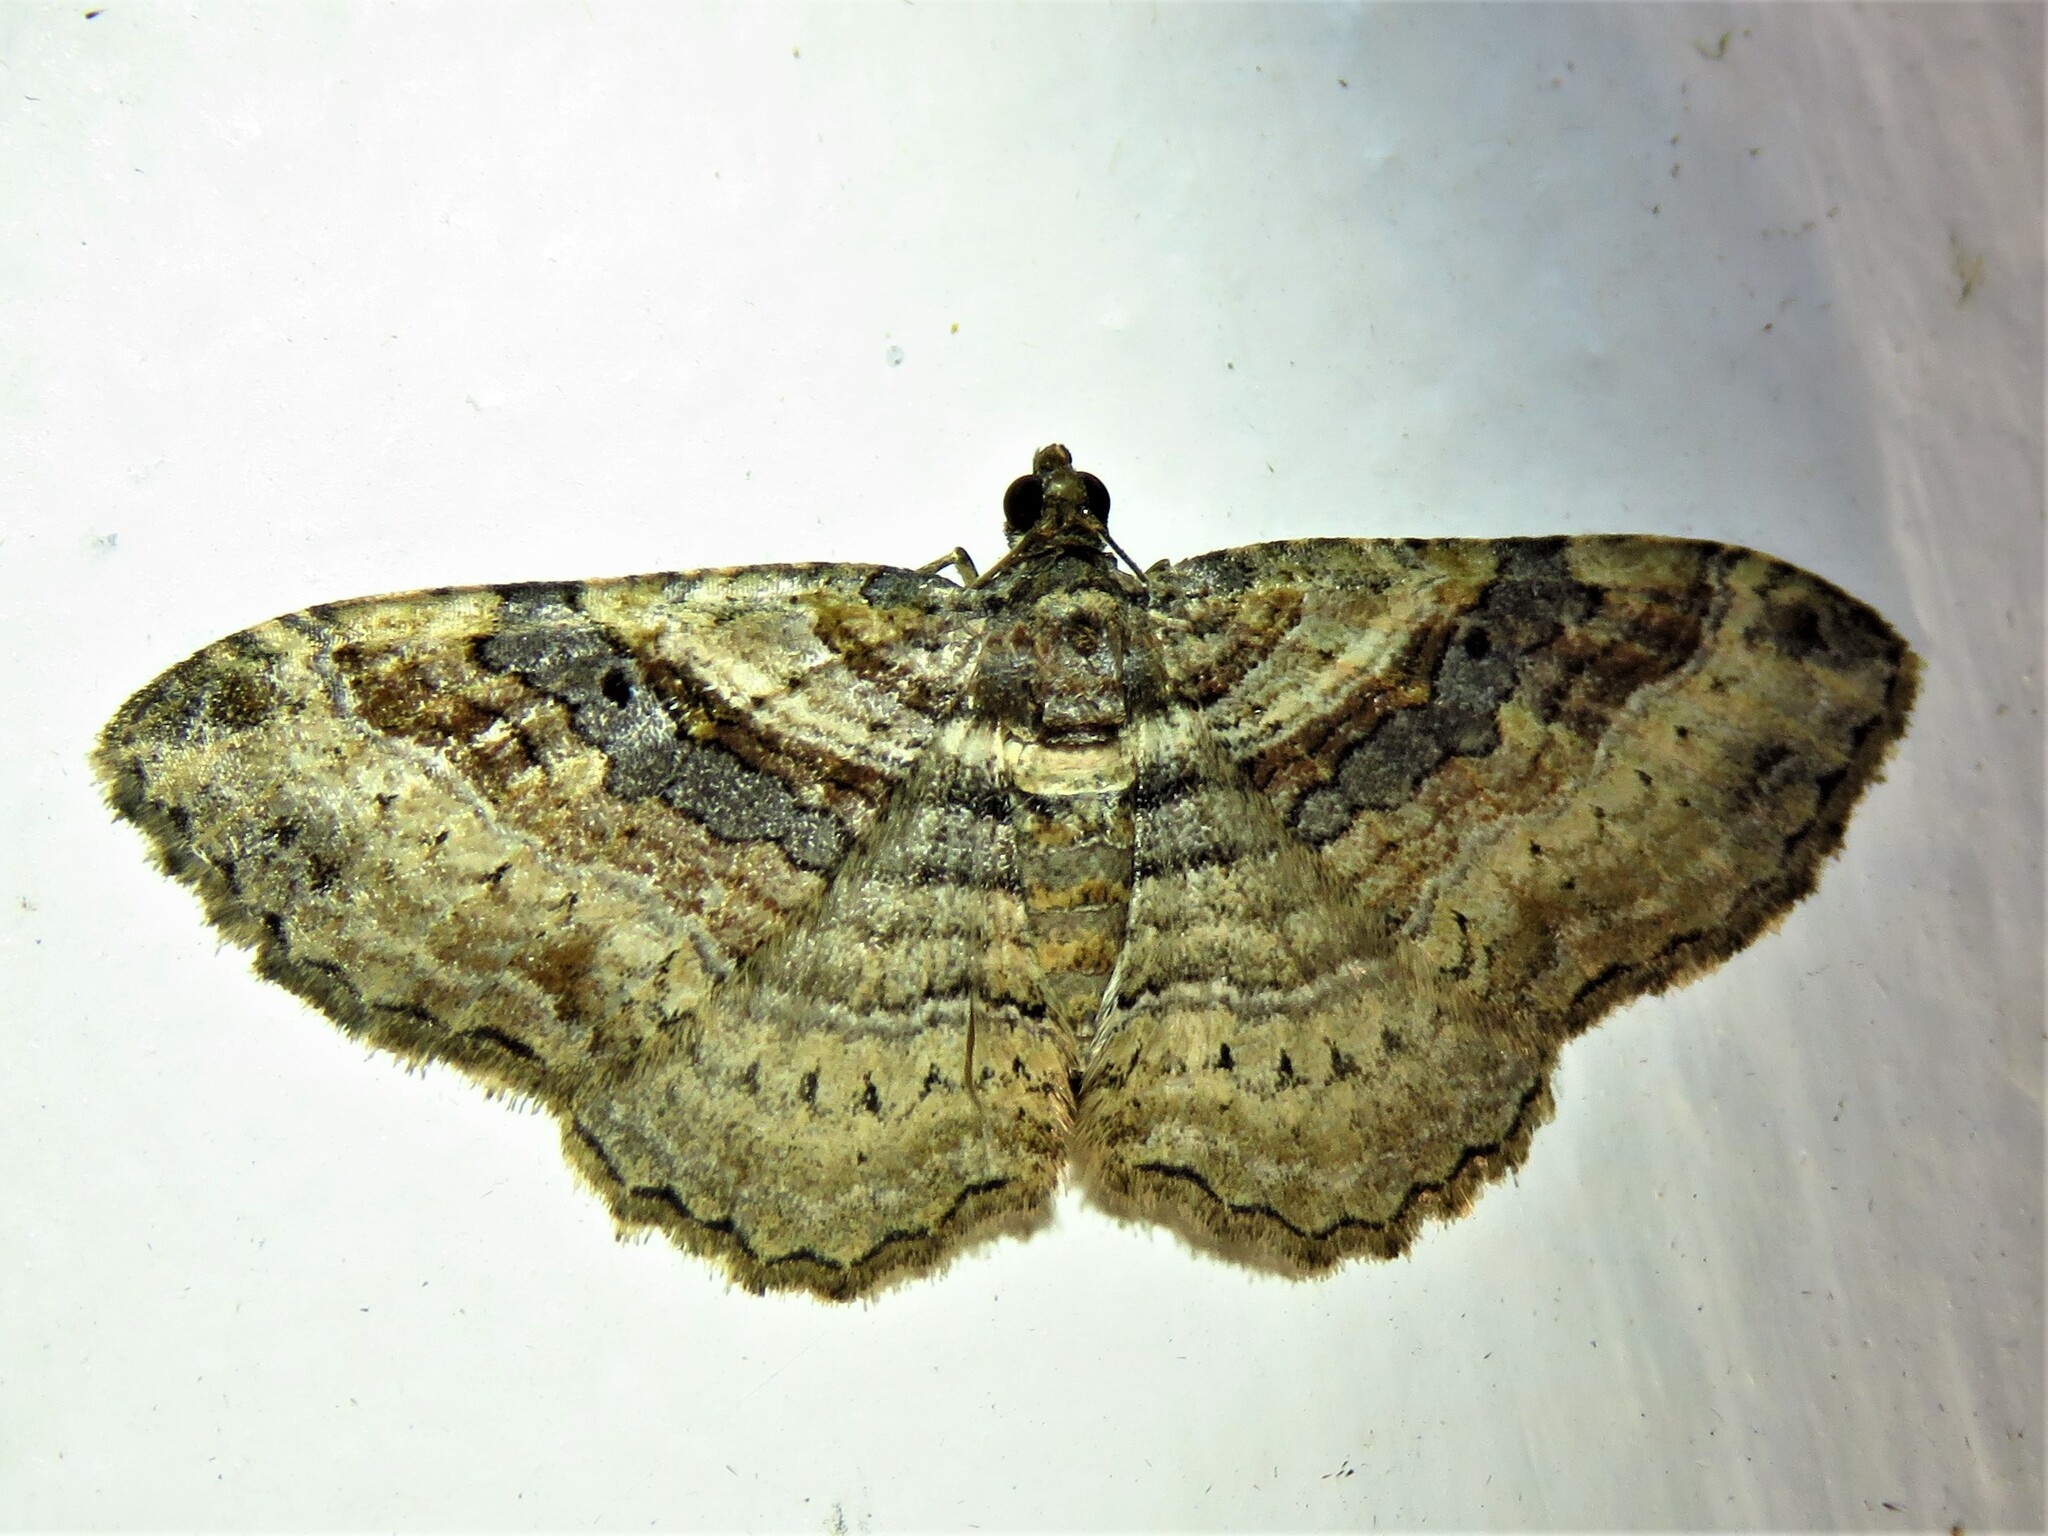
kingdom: Animalia
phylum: Arthropoda
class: Insecta
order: Lepidoptera
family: Geometridae
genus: Costaconvexa
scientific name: Costaconvexa centrostrigaria
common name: Bent-line carpet
